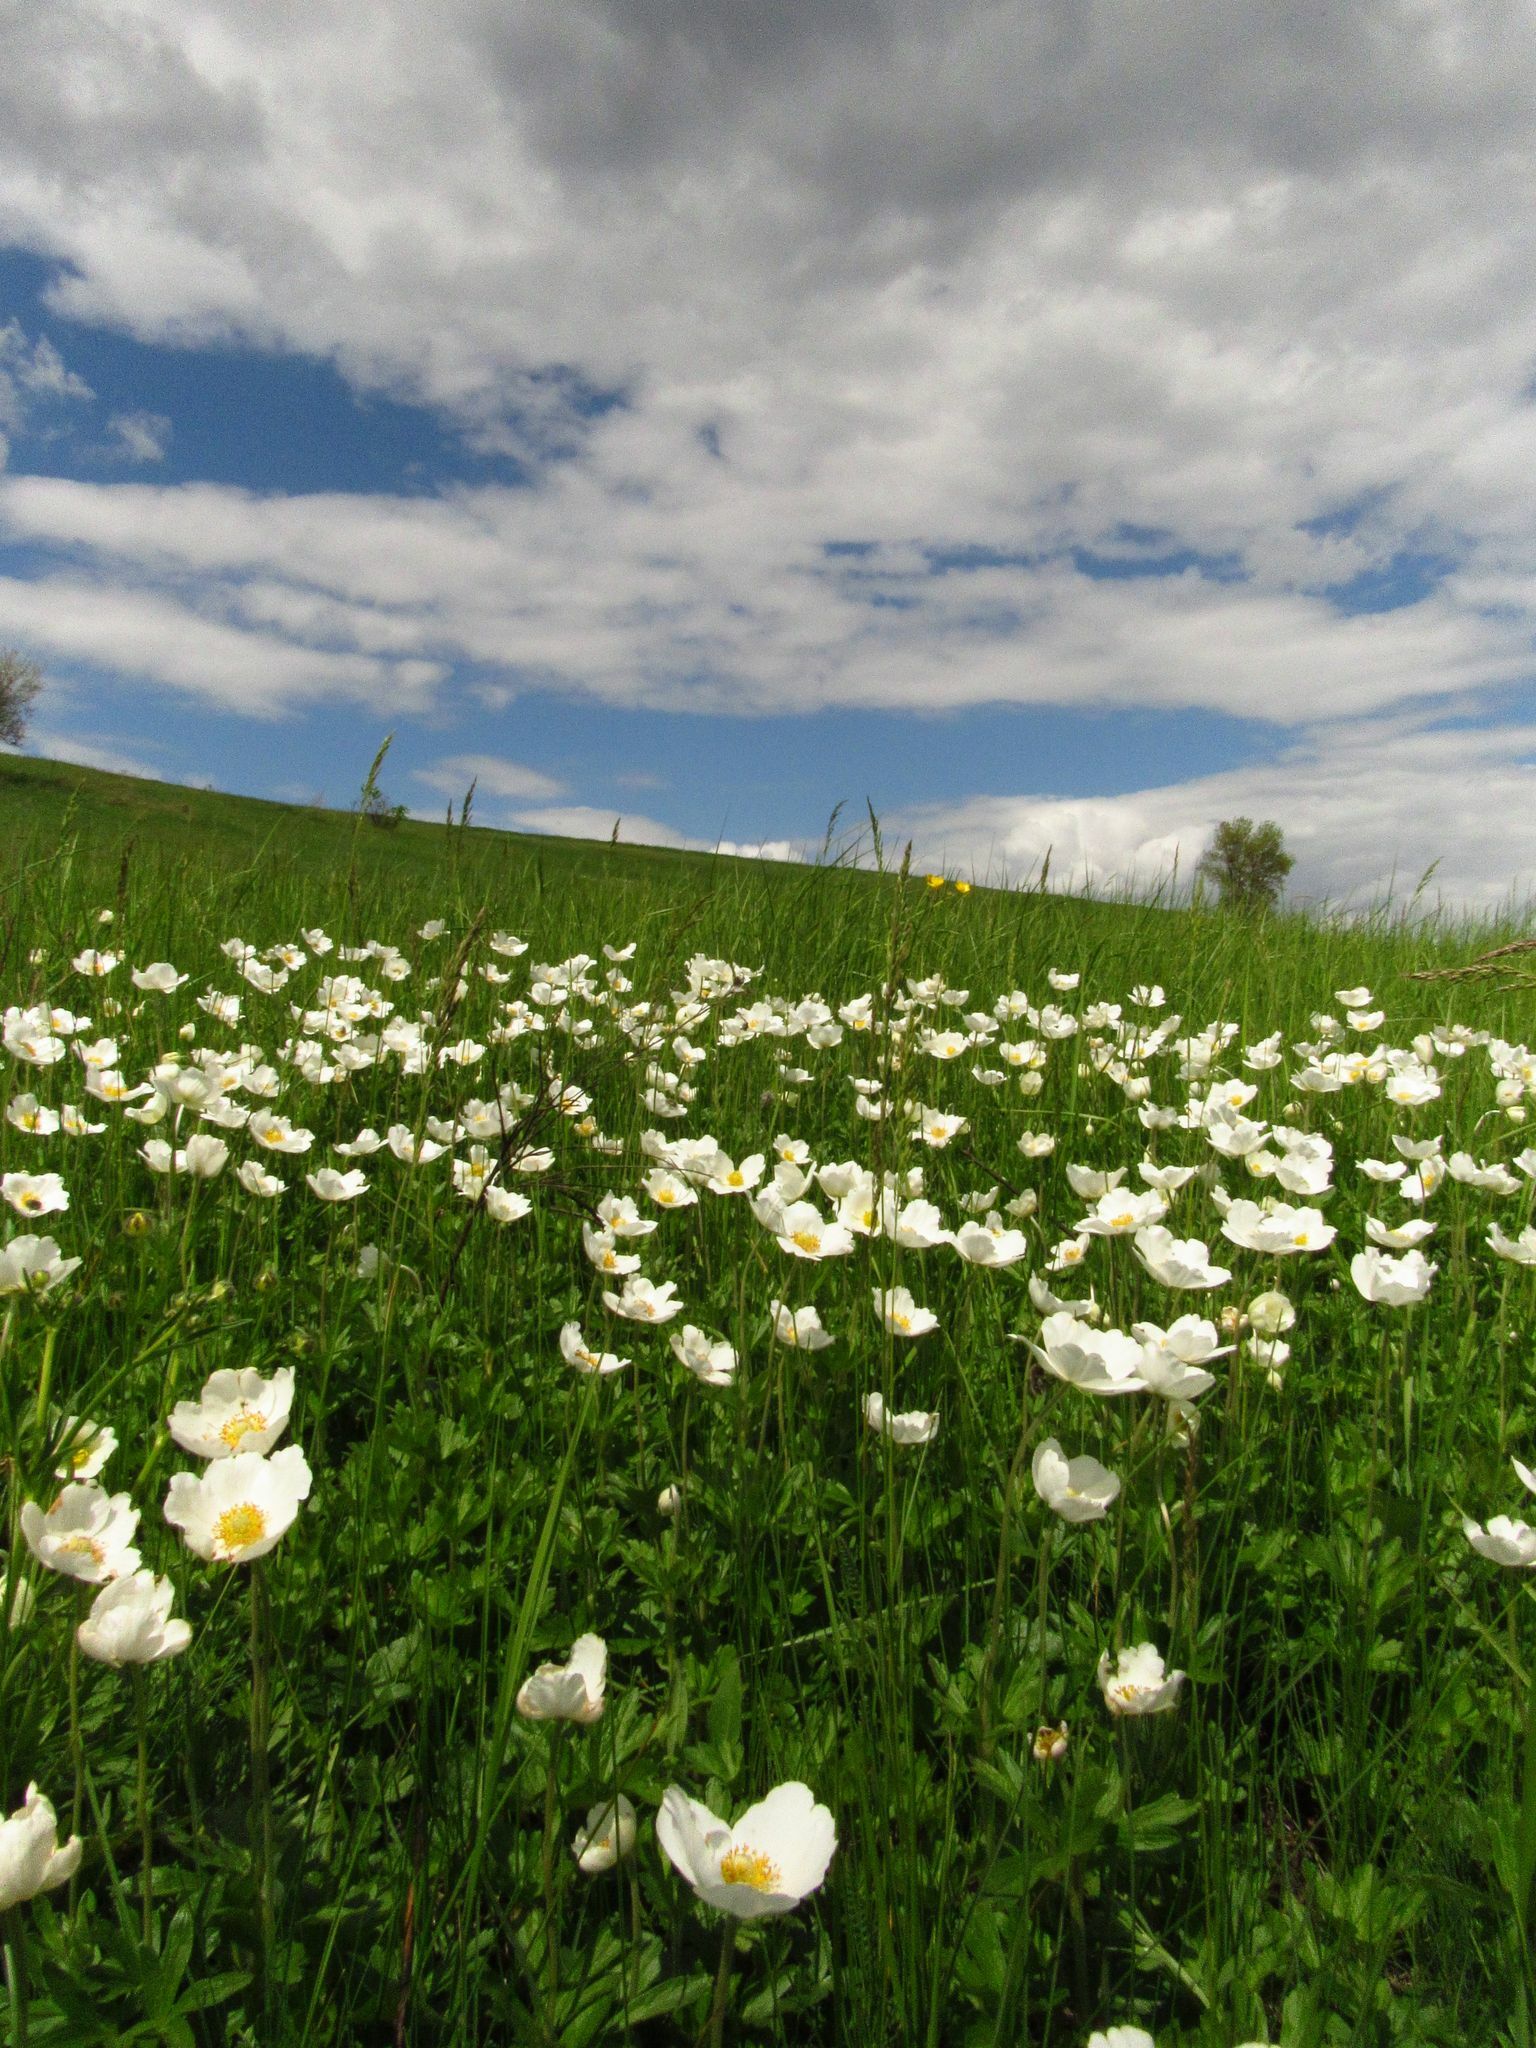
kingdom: Plantae
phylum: Tracheophyta
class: Magnoliopsida
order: Ranunculales
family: Ranunculaceae
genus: Anemone
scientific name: Anemone sylvestris
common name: Snowdrop anemone
